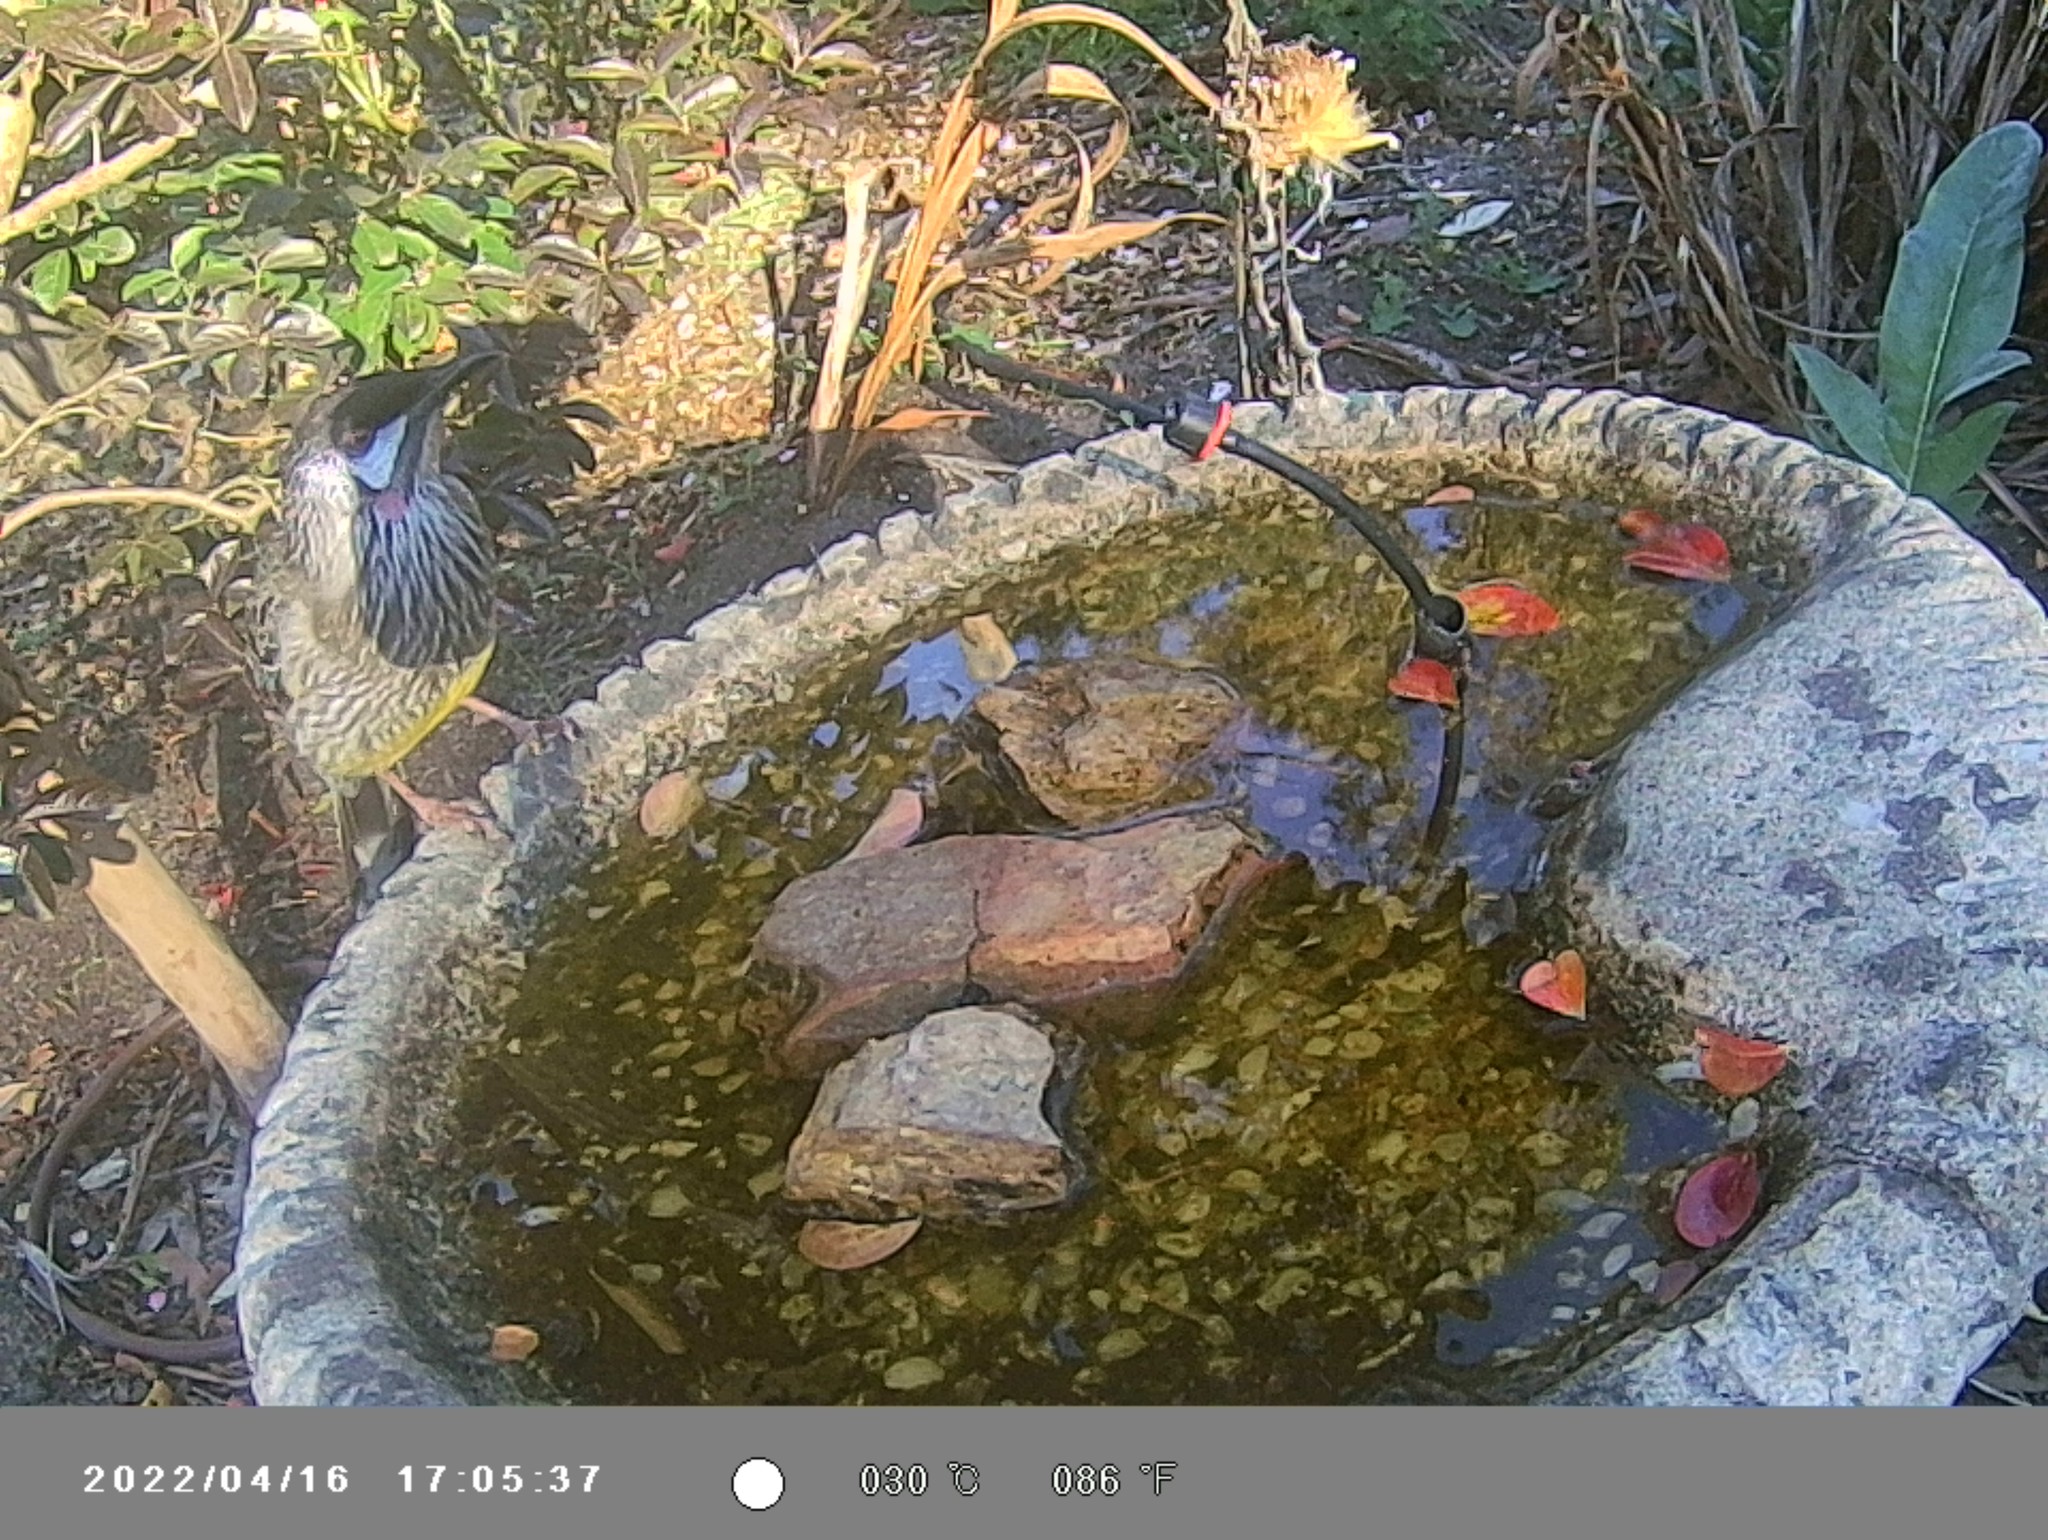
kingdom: Animalia
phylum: Chordata
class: Aves
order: Passeriformes
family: Meliphagidae
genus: Anthochaera
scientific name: Anthochaera carunculata
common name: Red wattlebird
